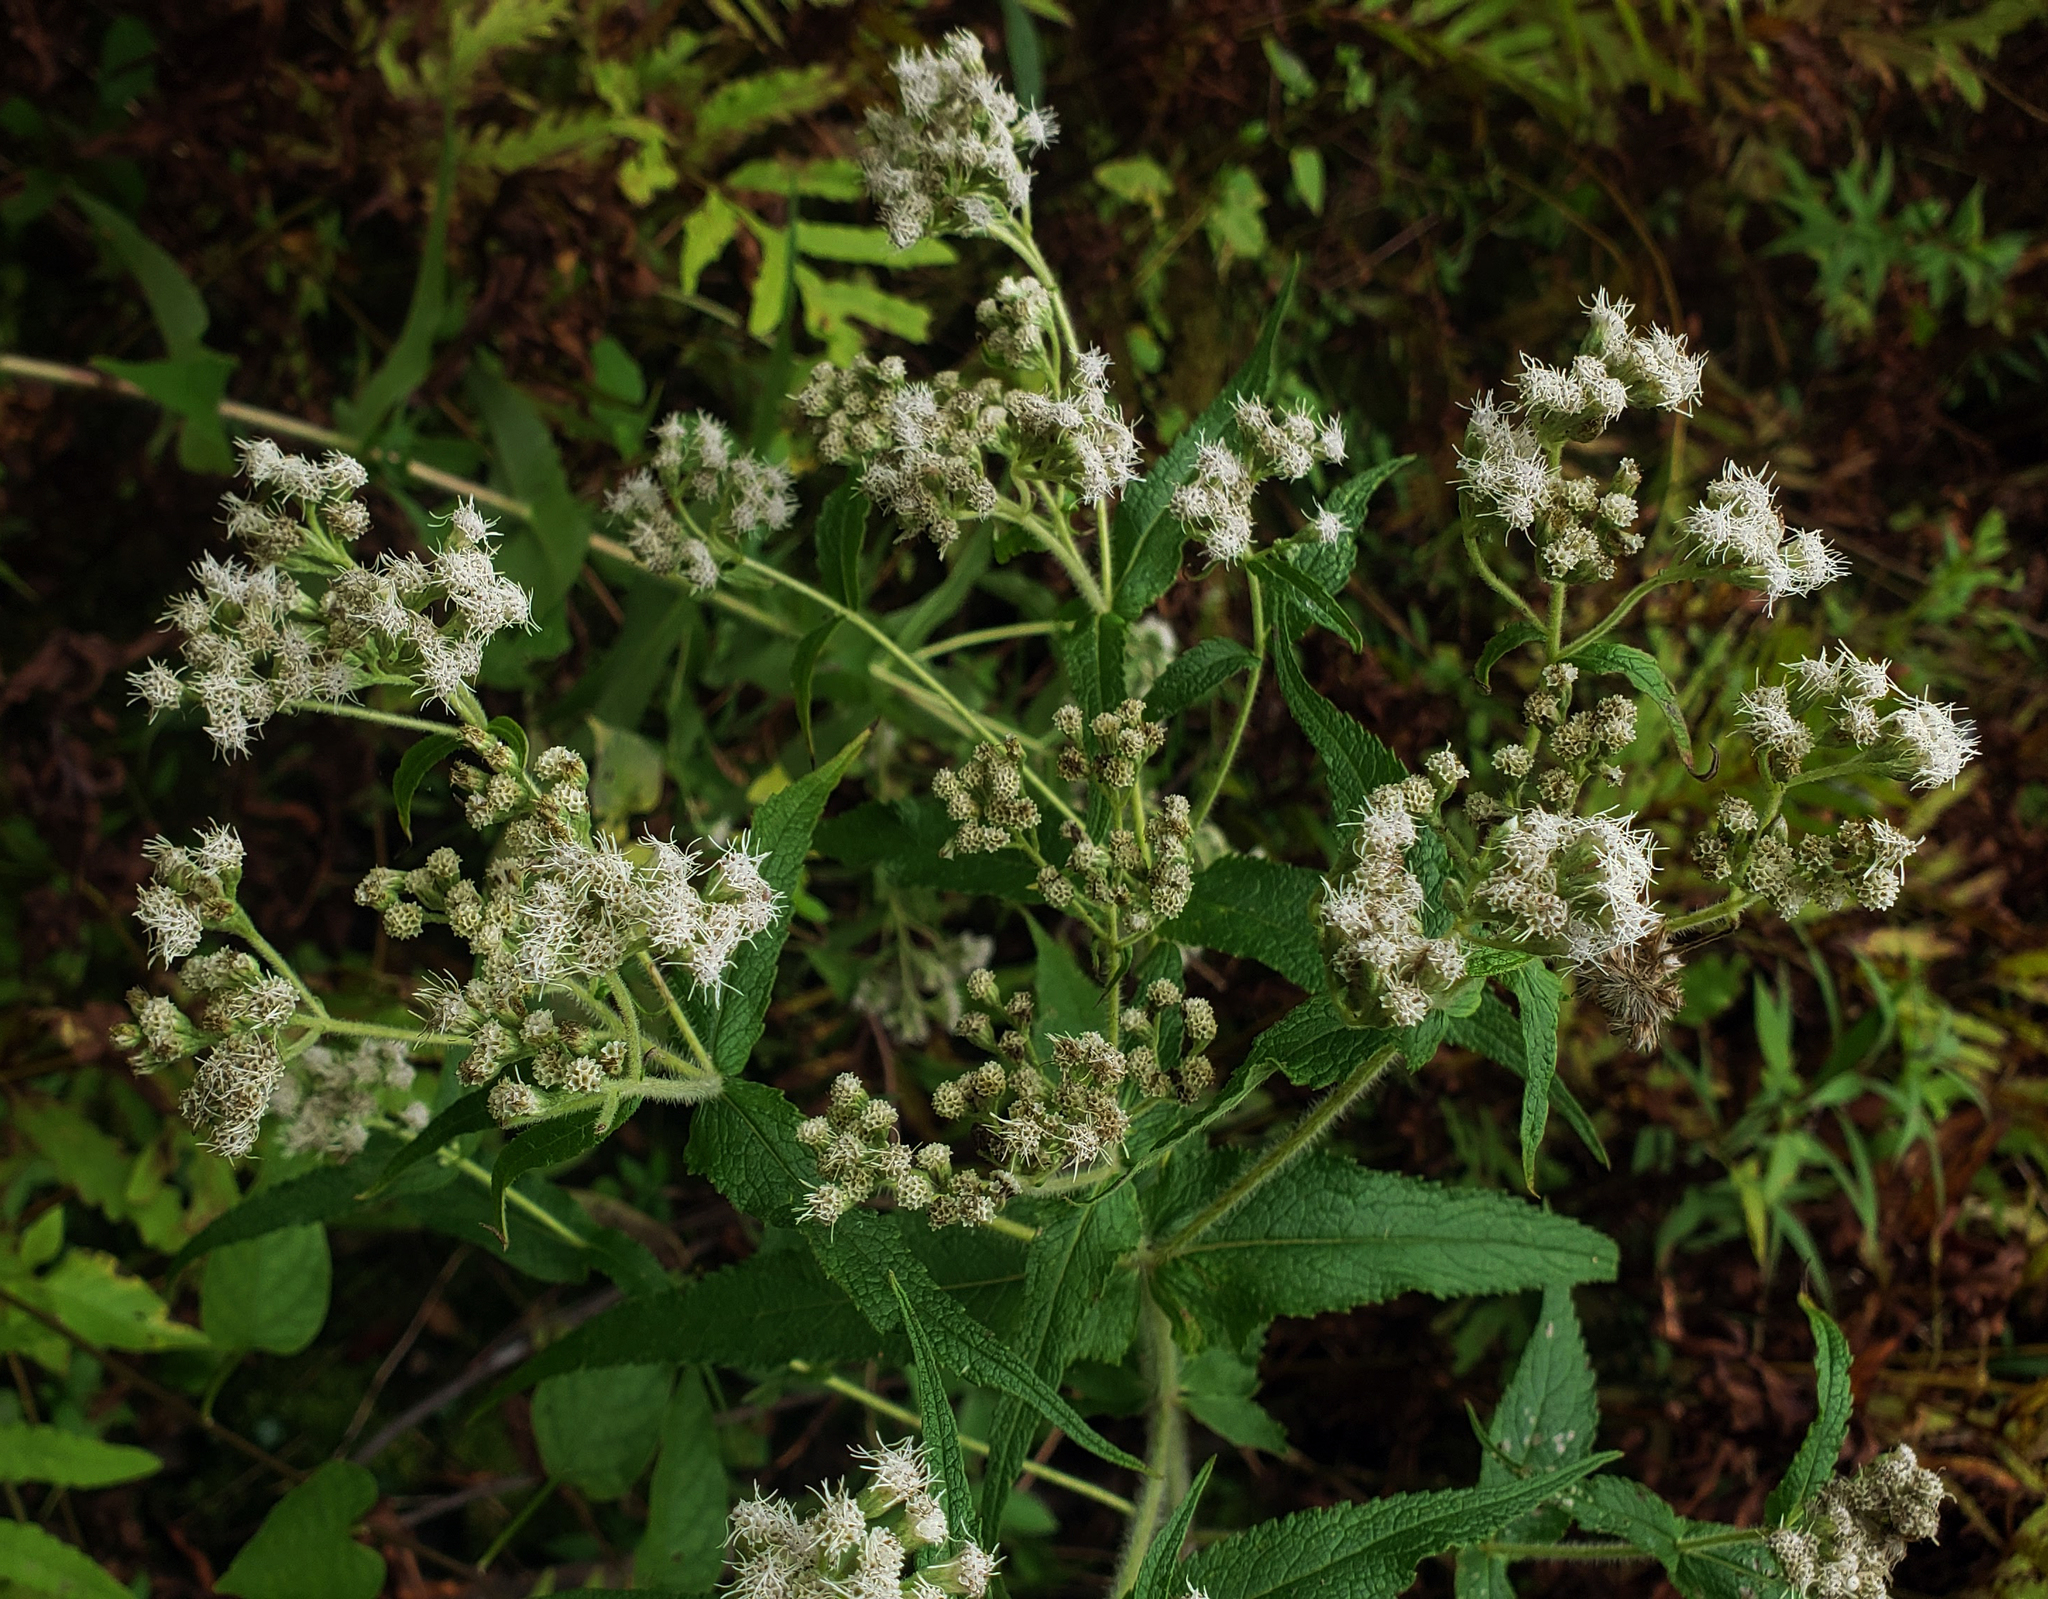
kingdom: Plantae
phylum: Tracheophyta
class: Magnoliopsida
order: Asterales
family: Asteraceae
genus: Eupatorium
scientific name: Eupatorium perfoliatum
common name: Boneset
